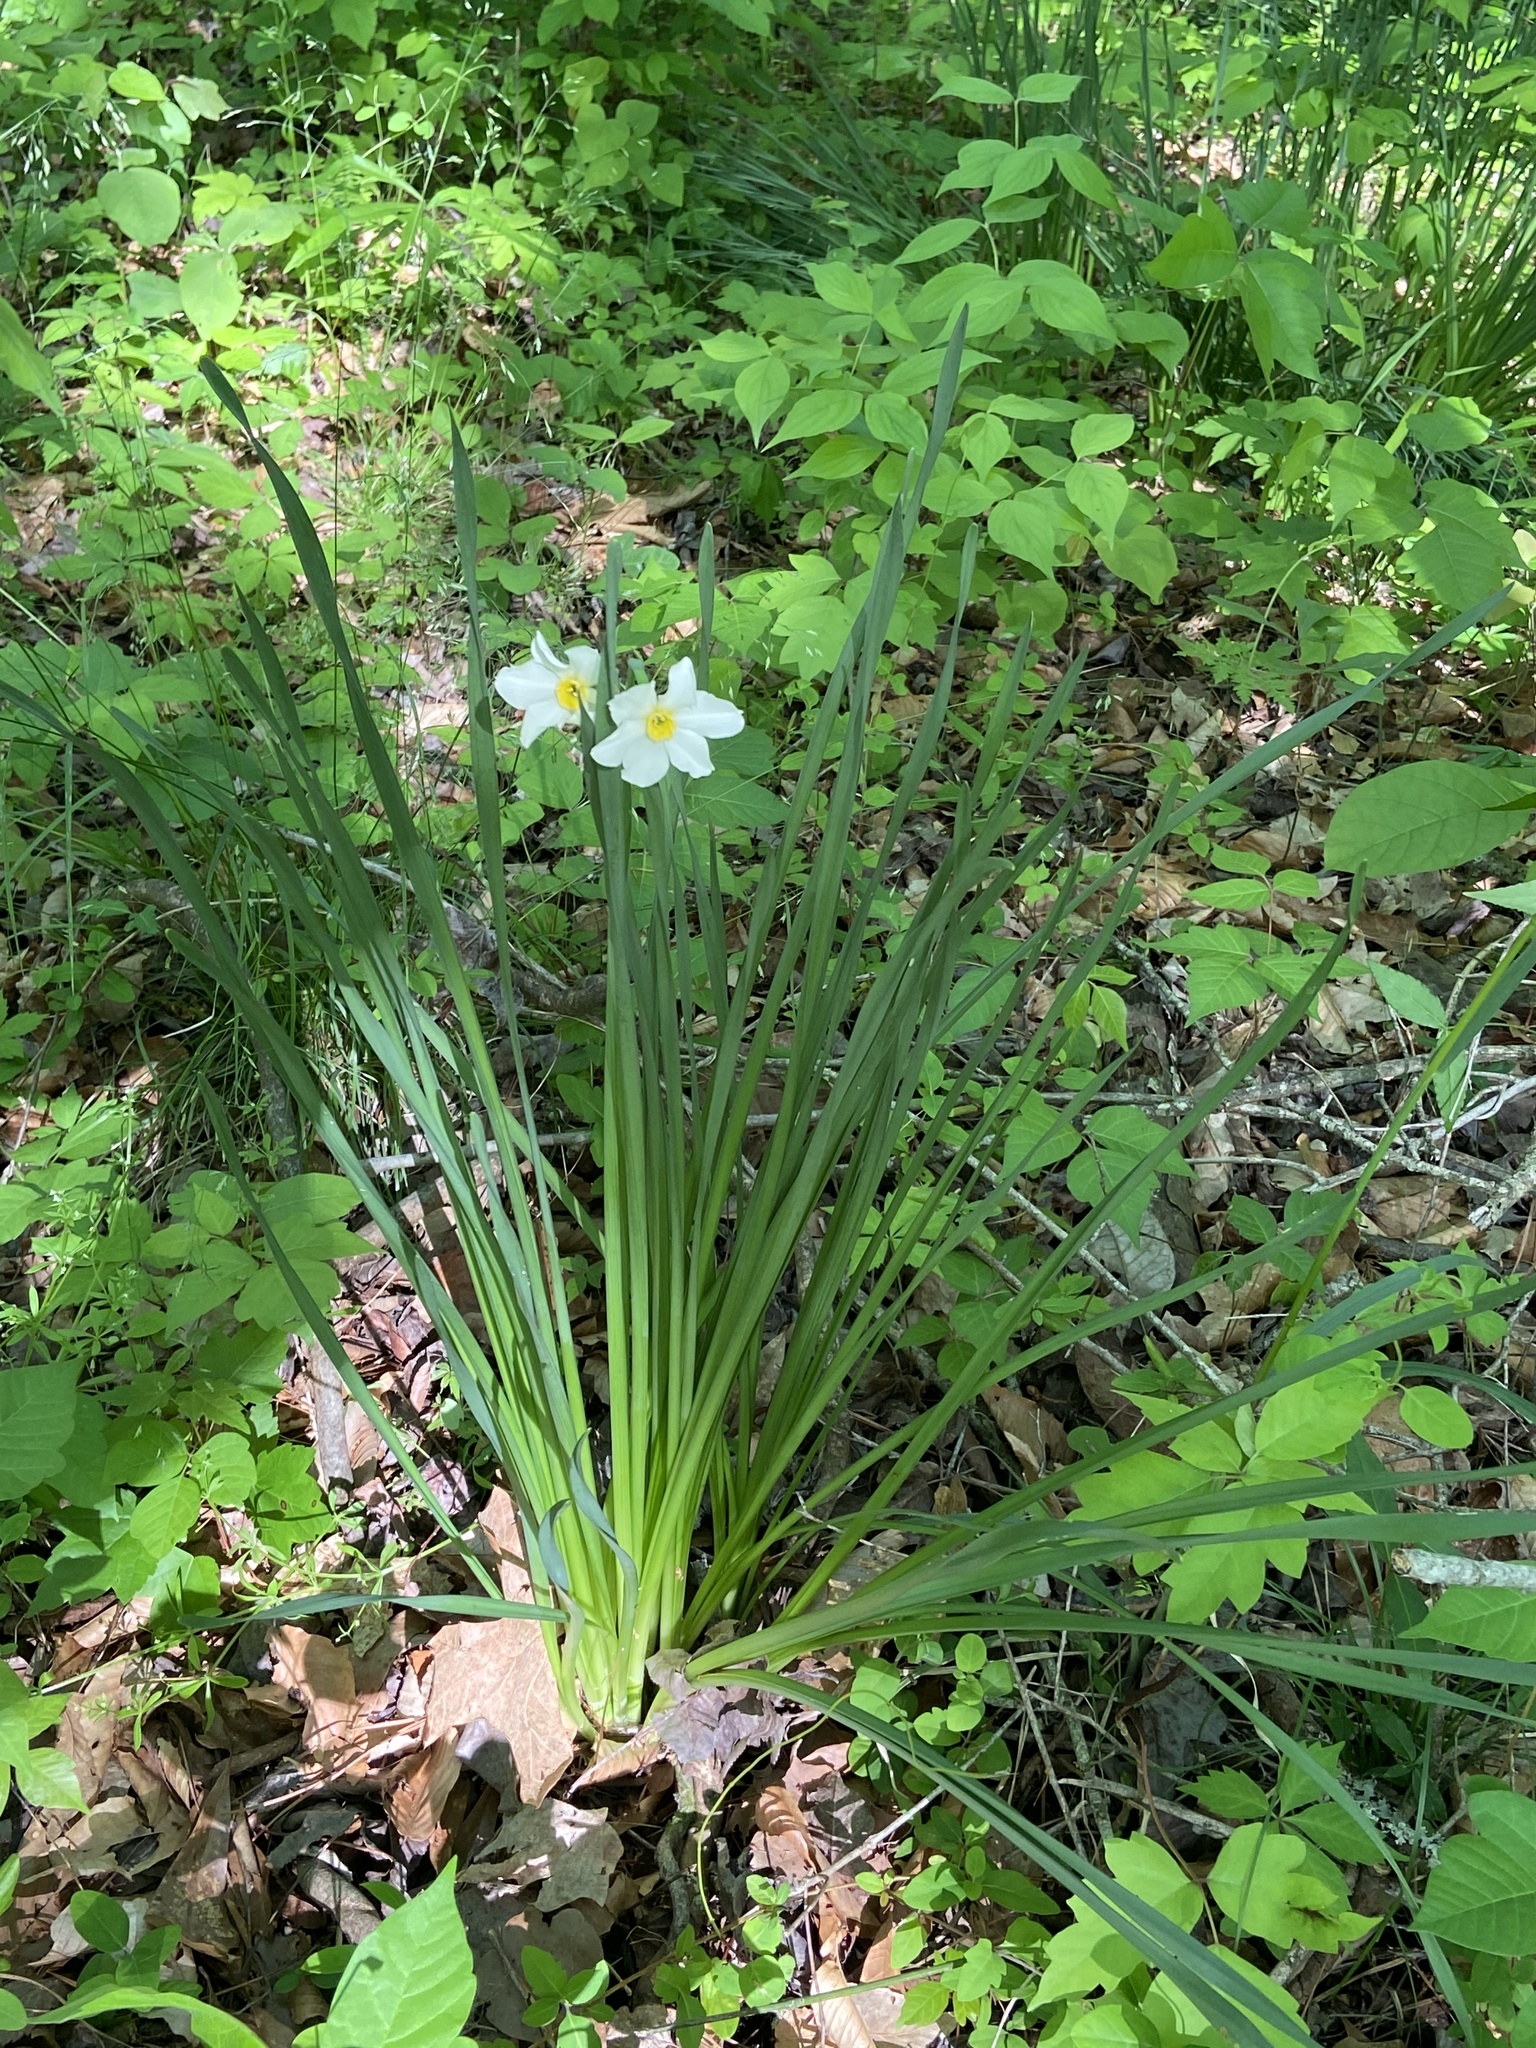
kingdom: Plantae
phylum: Tracheophyta
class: Liliopsida
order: Asparagales
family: Amaryllidaceae
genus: Narcissus
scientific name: Narcissus medioluteus
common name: Primrose-peerless
